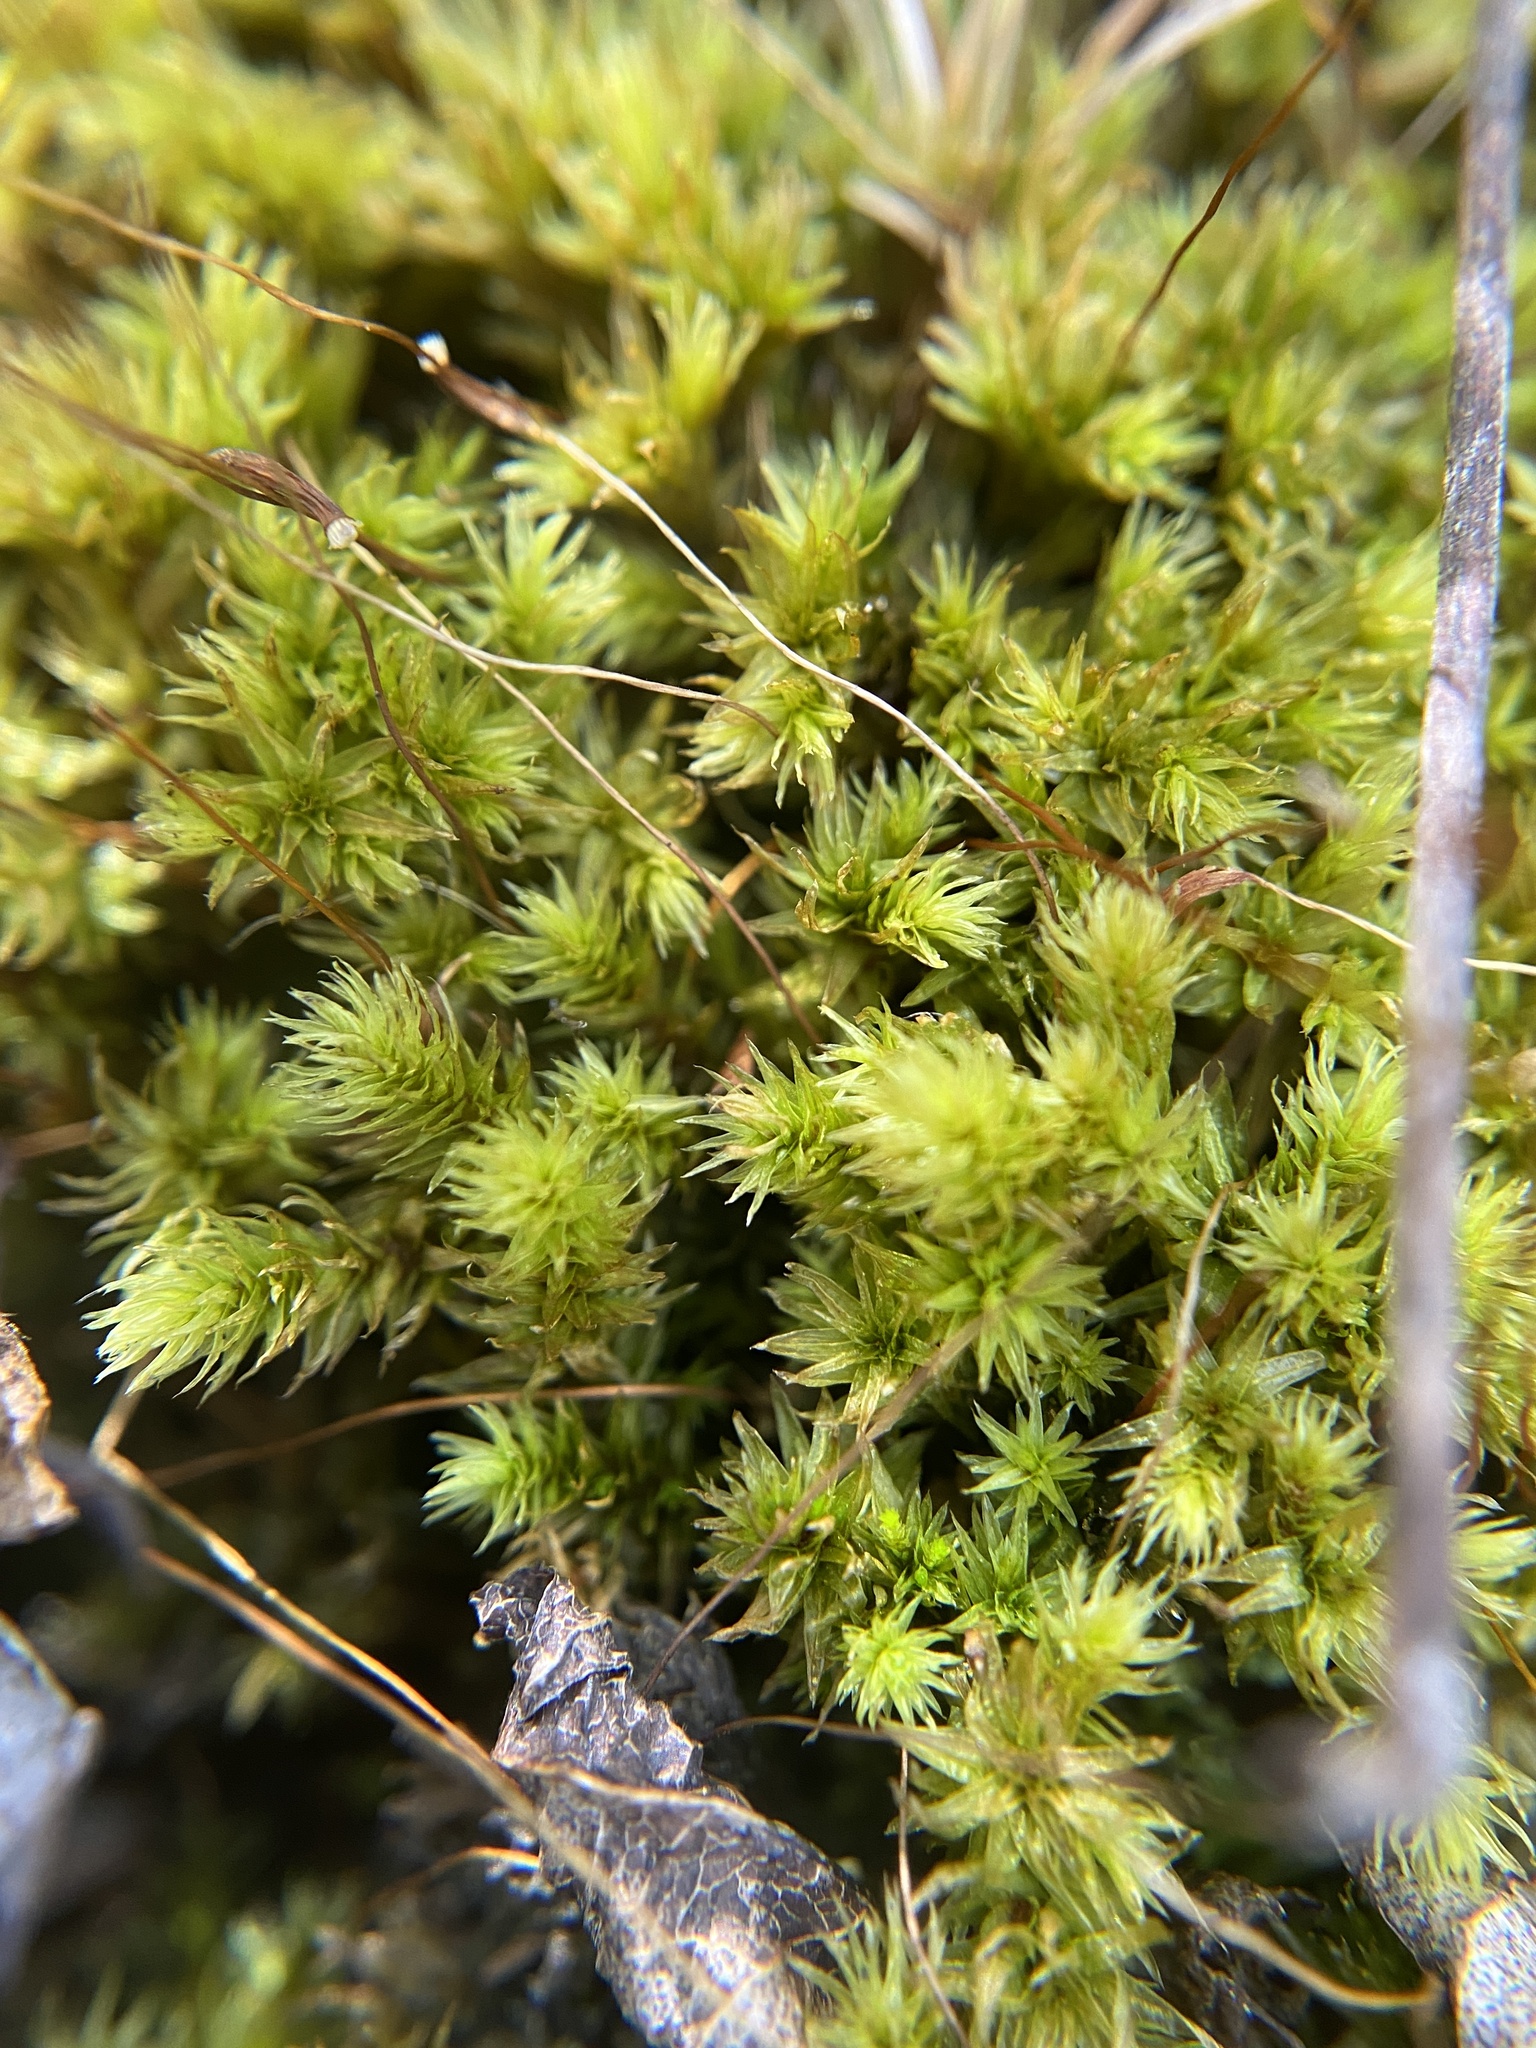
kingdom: Plantae
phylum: Bryophyta
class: Bryopsida
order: Aulacomniales
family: Aulacomniaceae
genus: Aulacomnium
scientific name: Aulacomnium palustre
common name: Bog groove-moss
